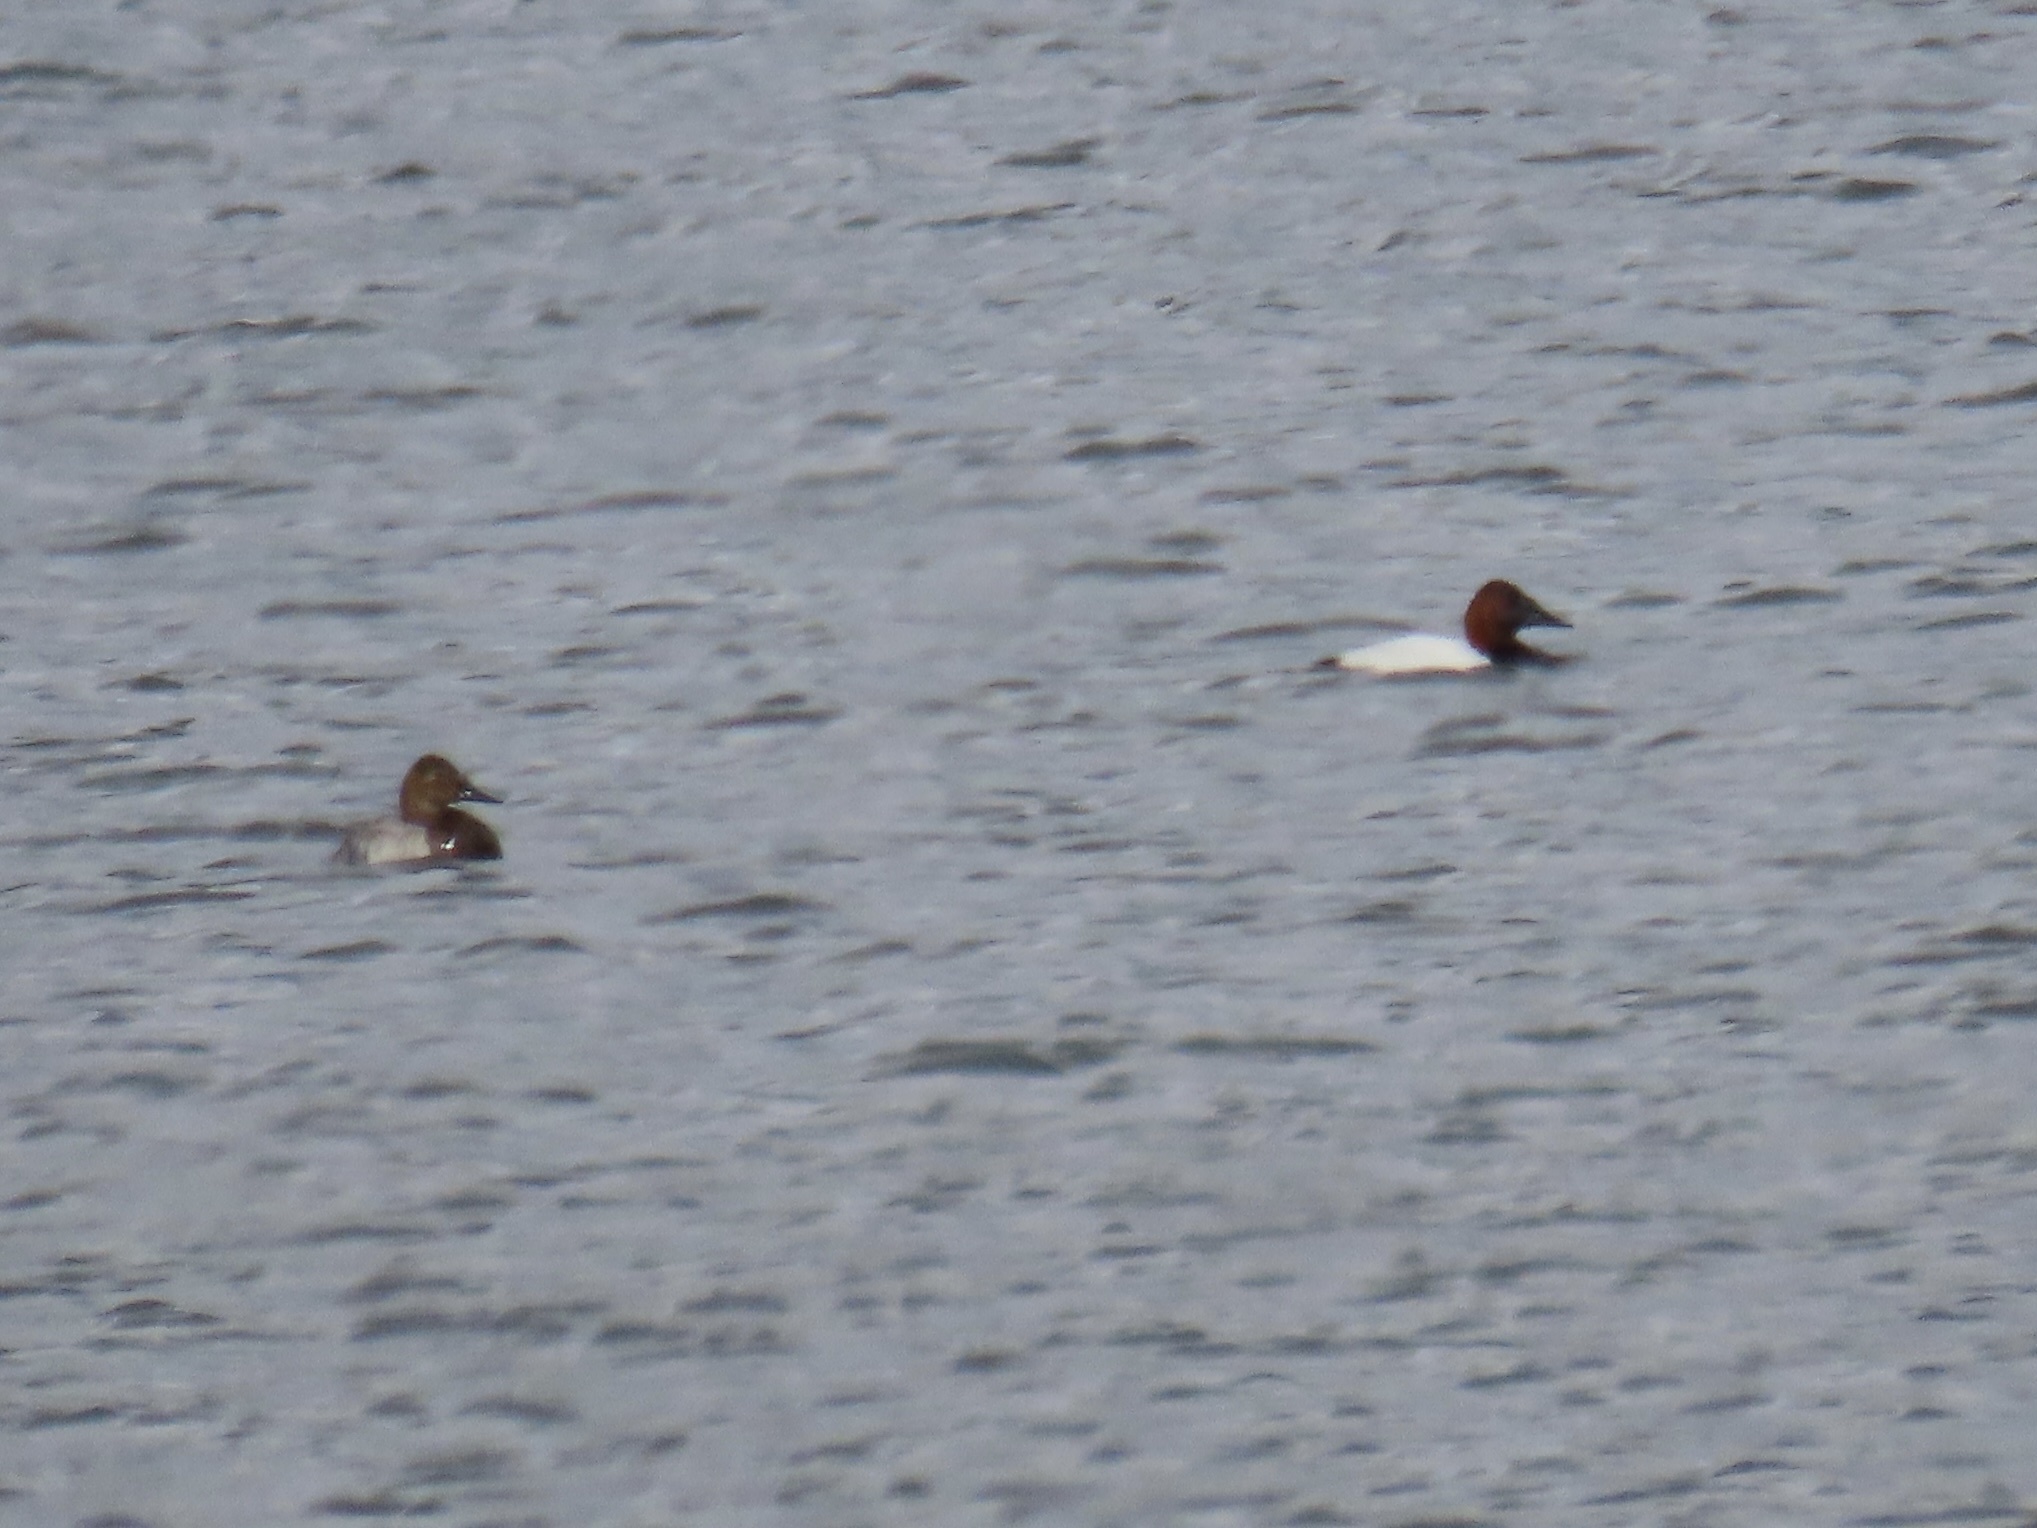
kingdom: Animalia
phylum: Chordata
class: Aves
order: Anseriformes
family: Anatidae
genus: Aythya
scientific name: Aythya valisineria
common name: Canvasback
